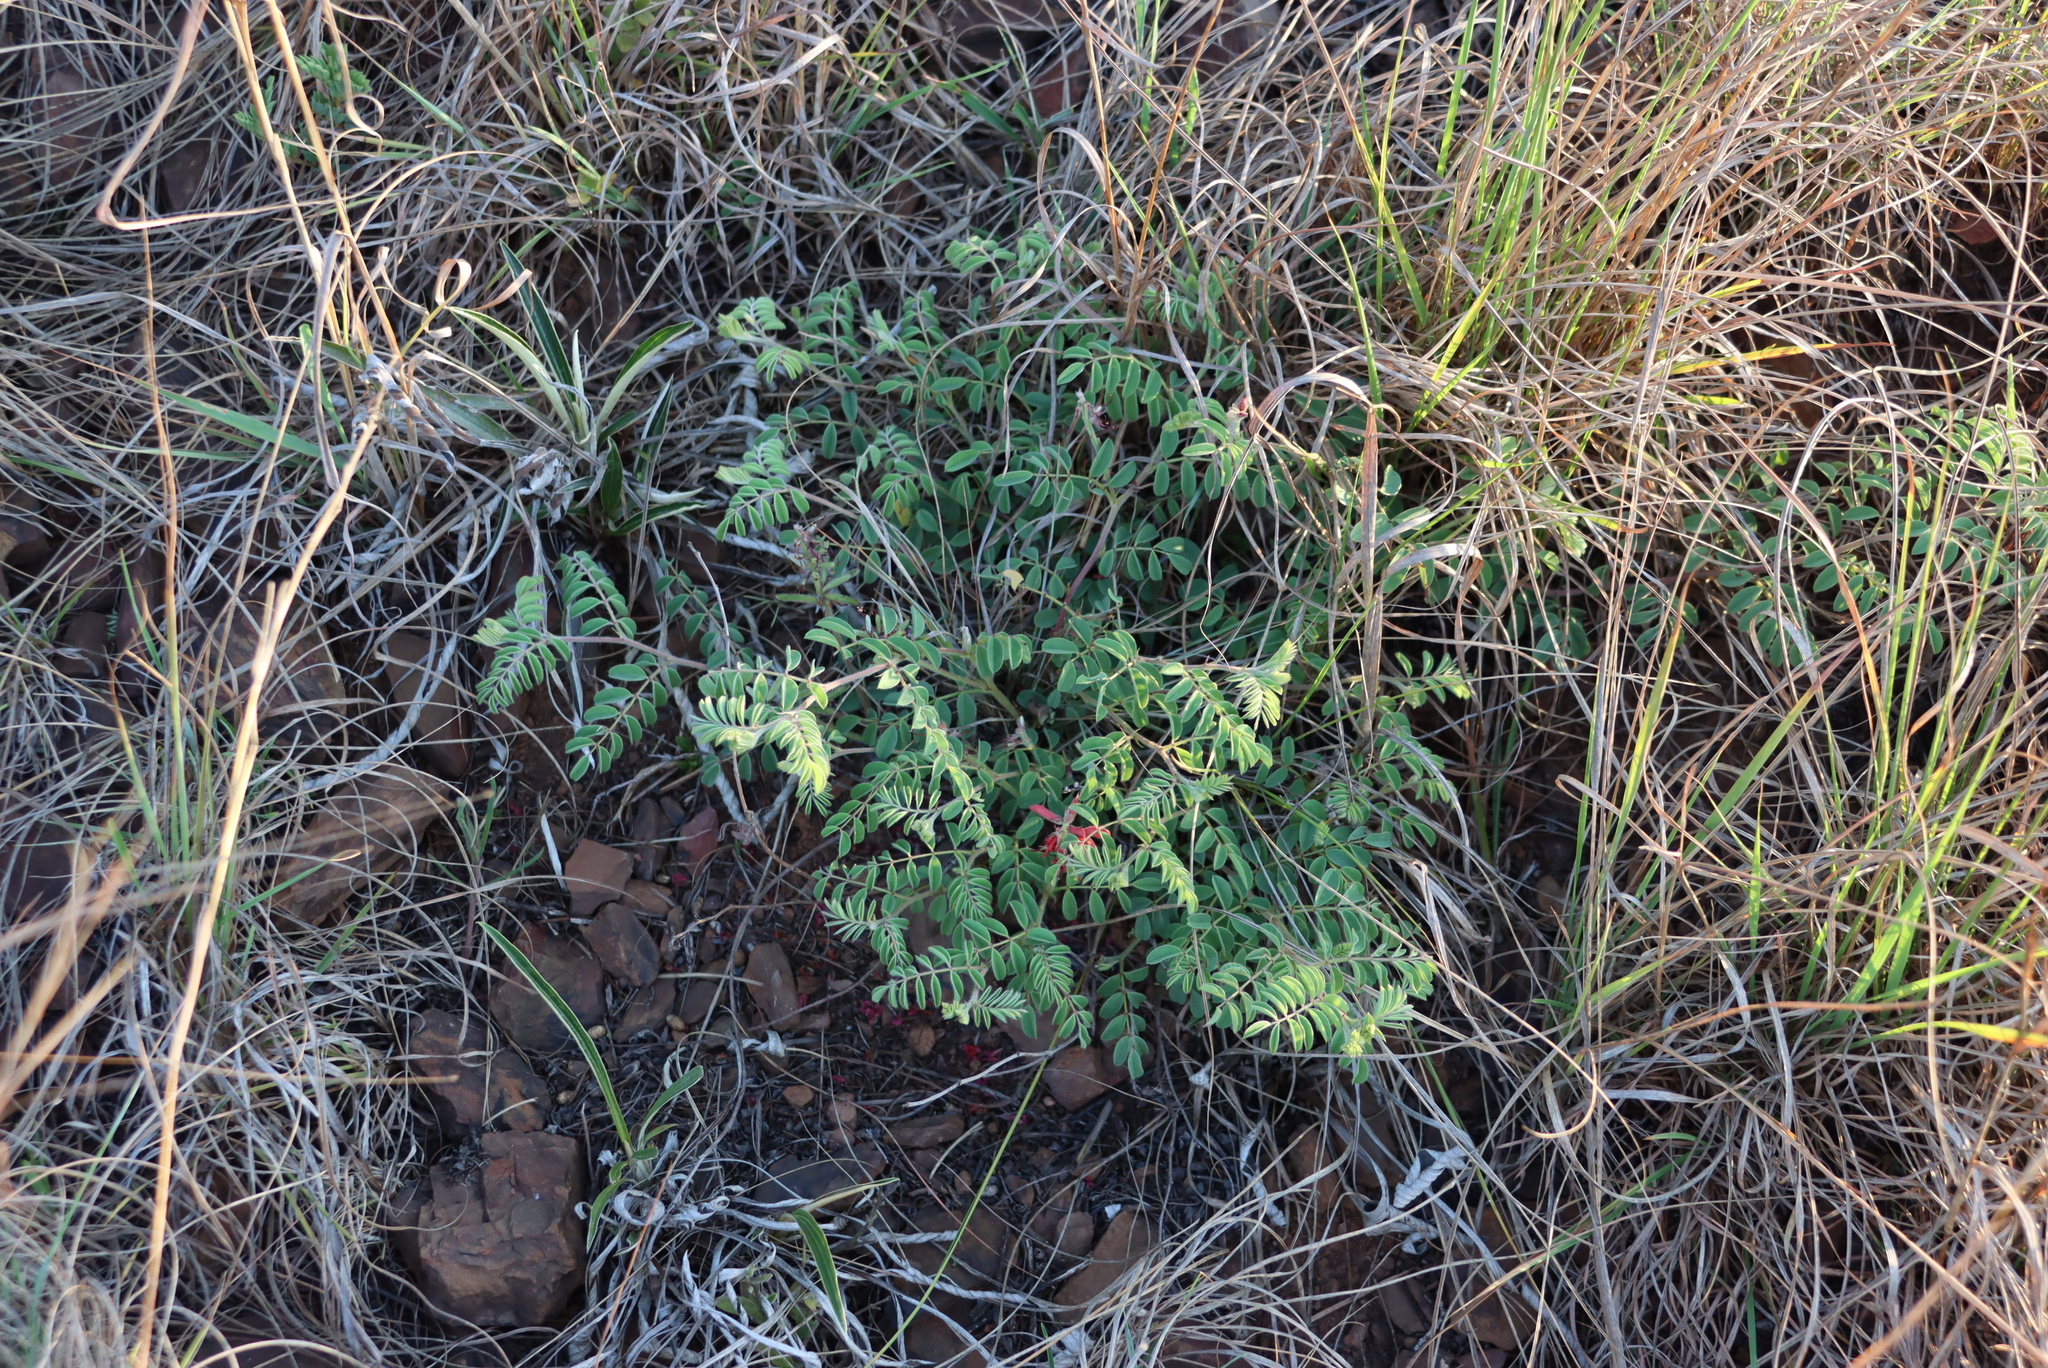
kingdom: Plantae
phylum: Tracheophyta
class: Magnoliopsida
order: Fabales
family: Fabaceae
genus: Indigofera
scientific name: Indigofera williamsonii
